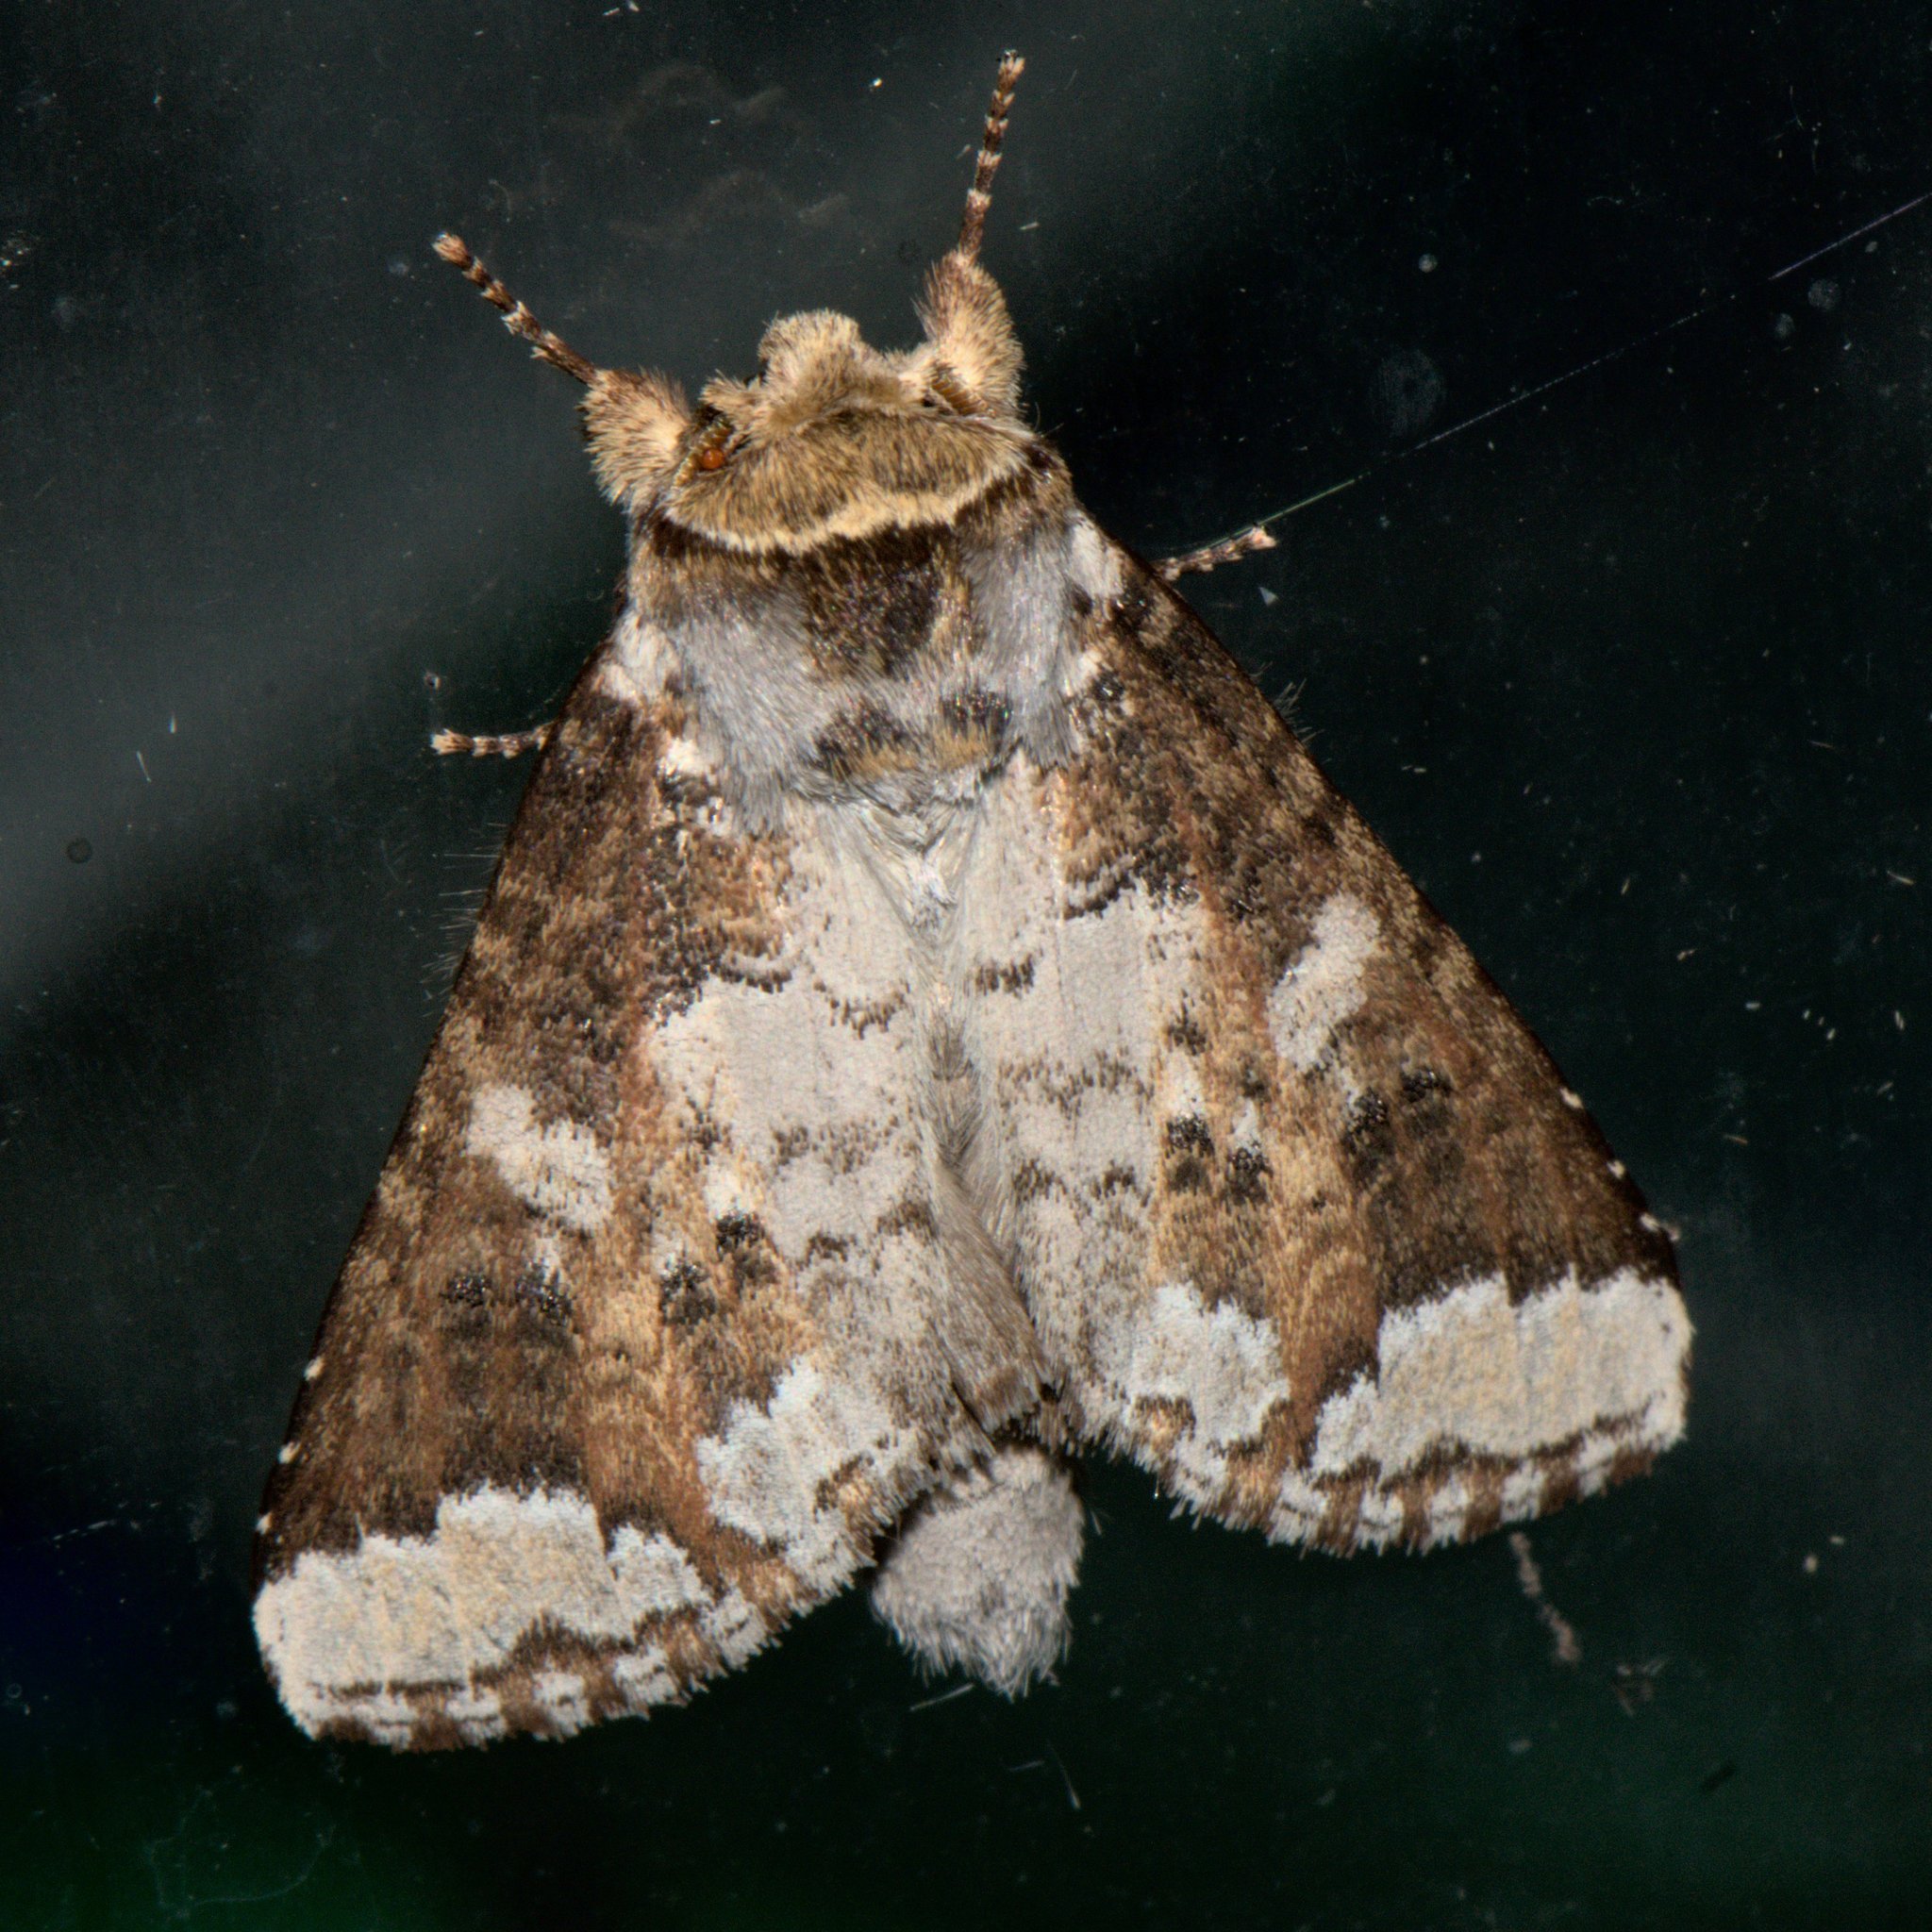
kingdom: Animalia
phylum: Arthropoda
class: Insecta
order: Lepidoptera
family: Notodontidae
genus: Neodrymonia
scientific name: Neodrymonia canifusa
